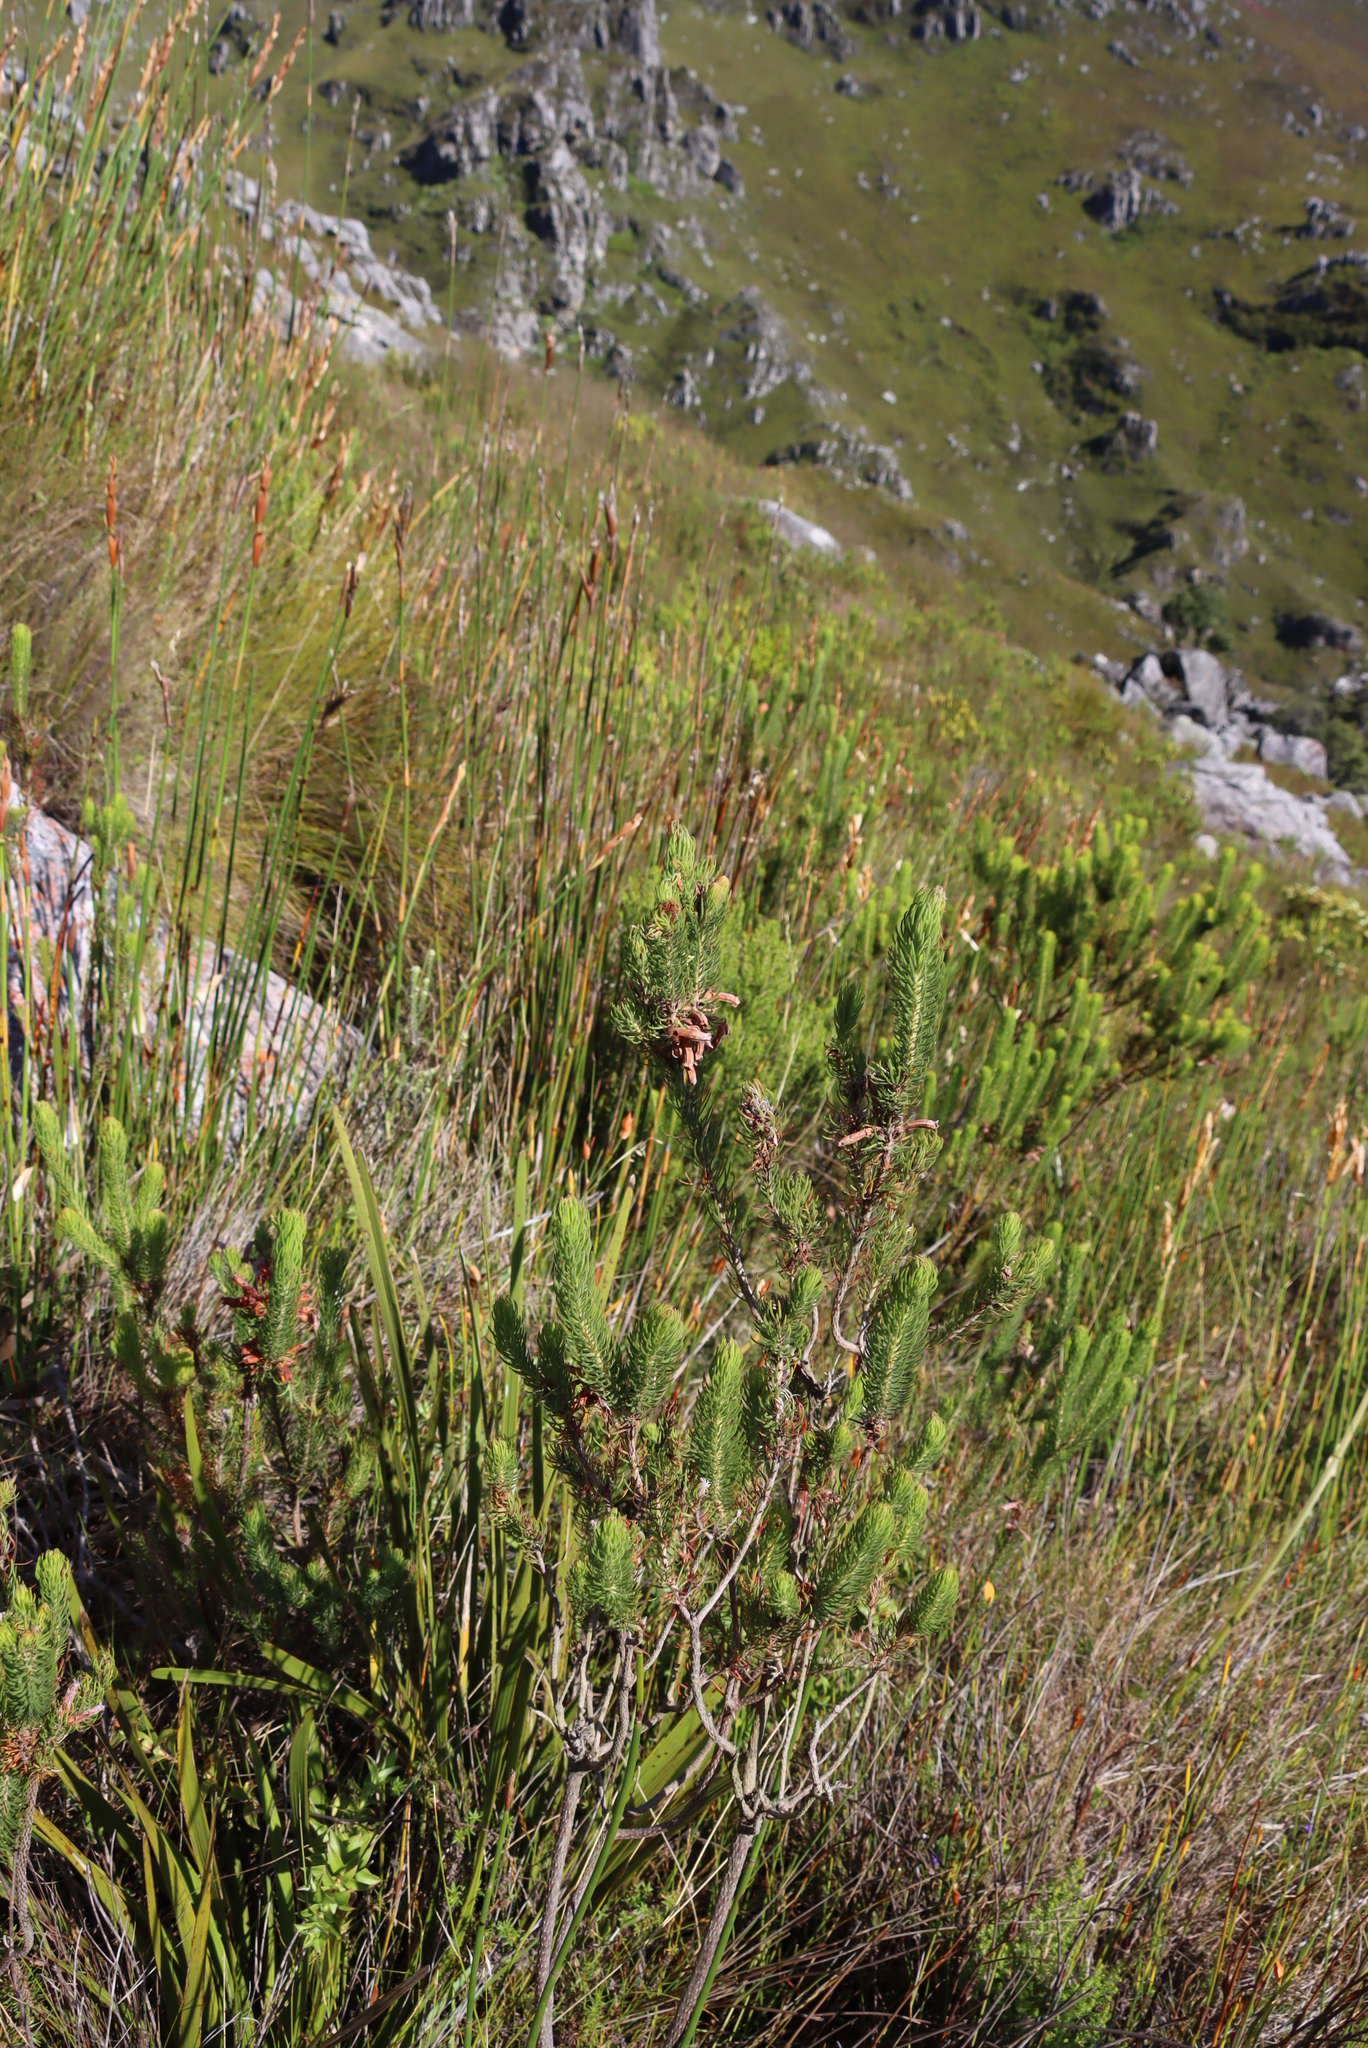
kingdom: Plantae
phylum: Tracheophyta
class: Magnoliopsida
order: Ericales
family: Ericaceae
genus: Erica
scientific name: Erica viscaria
